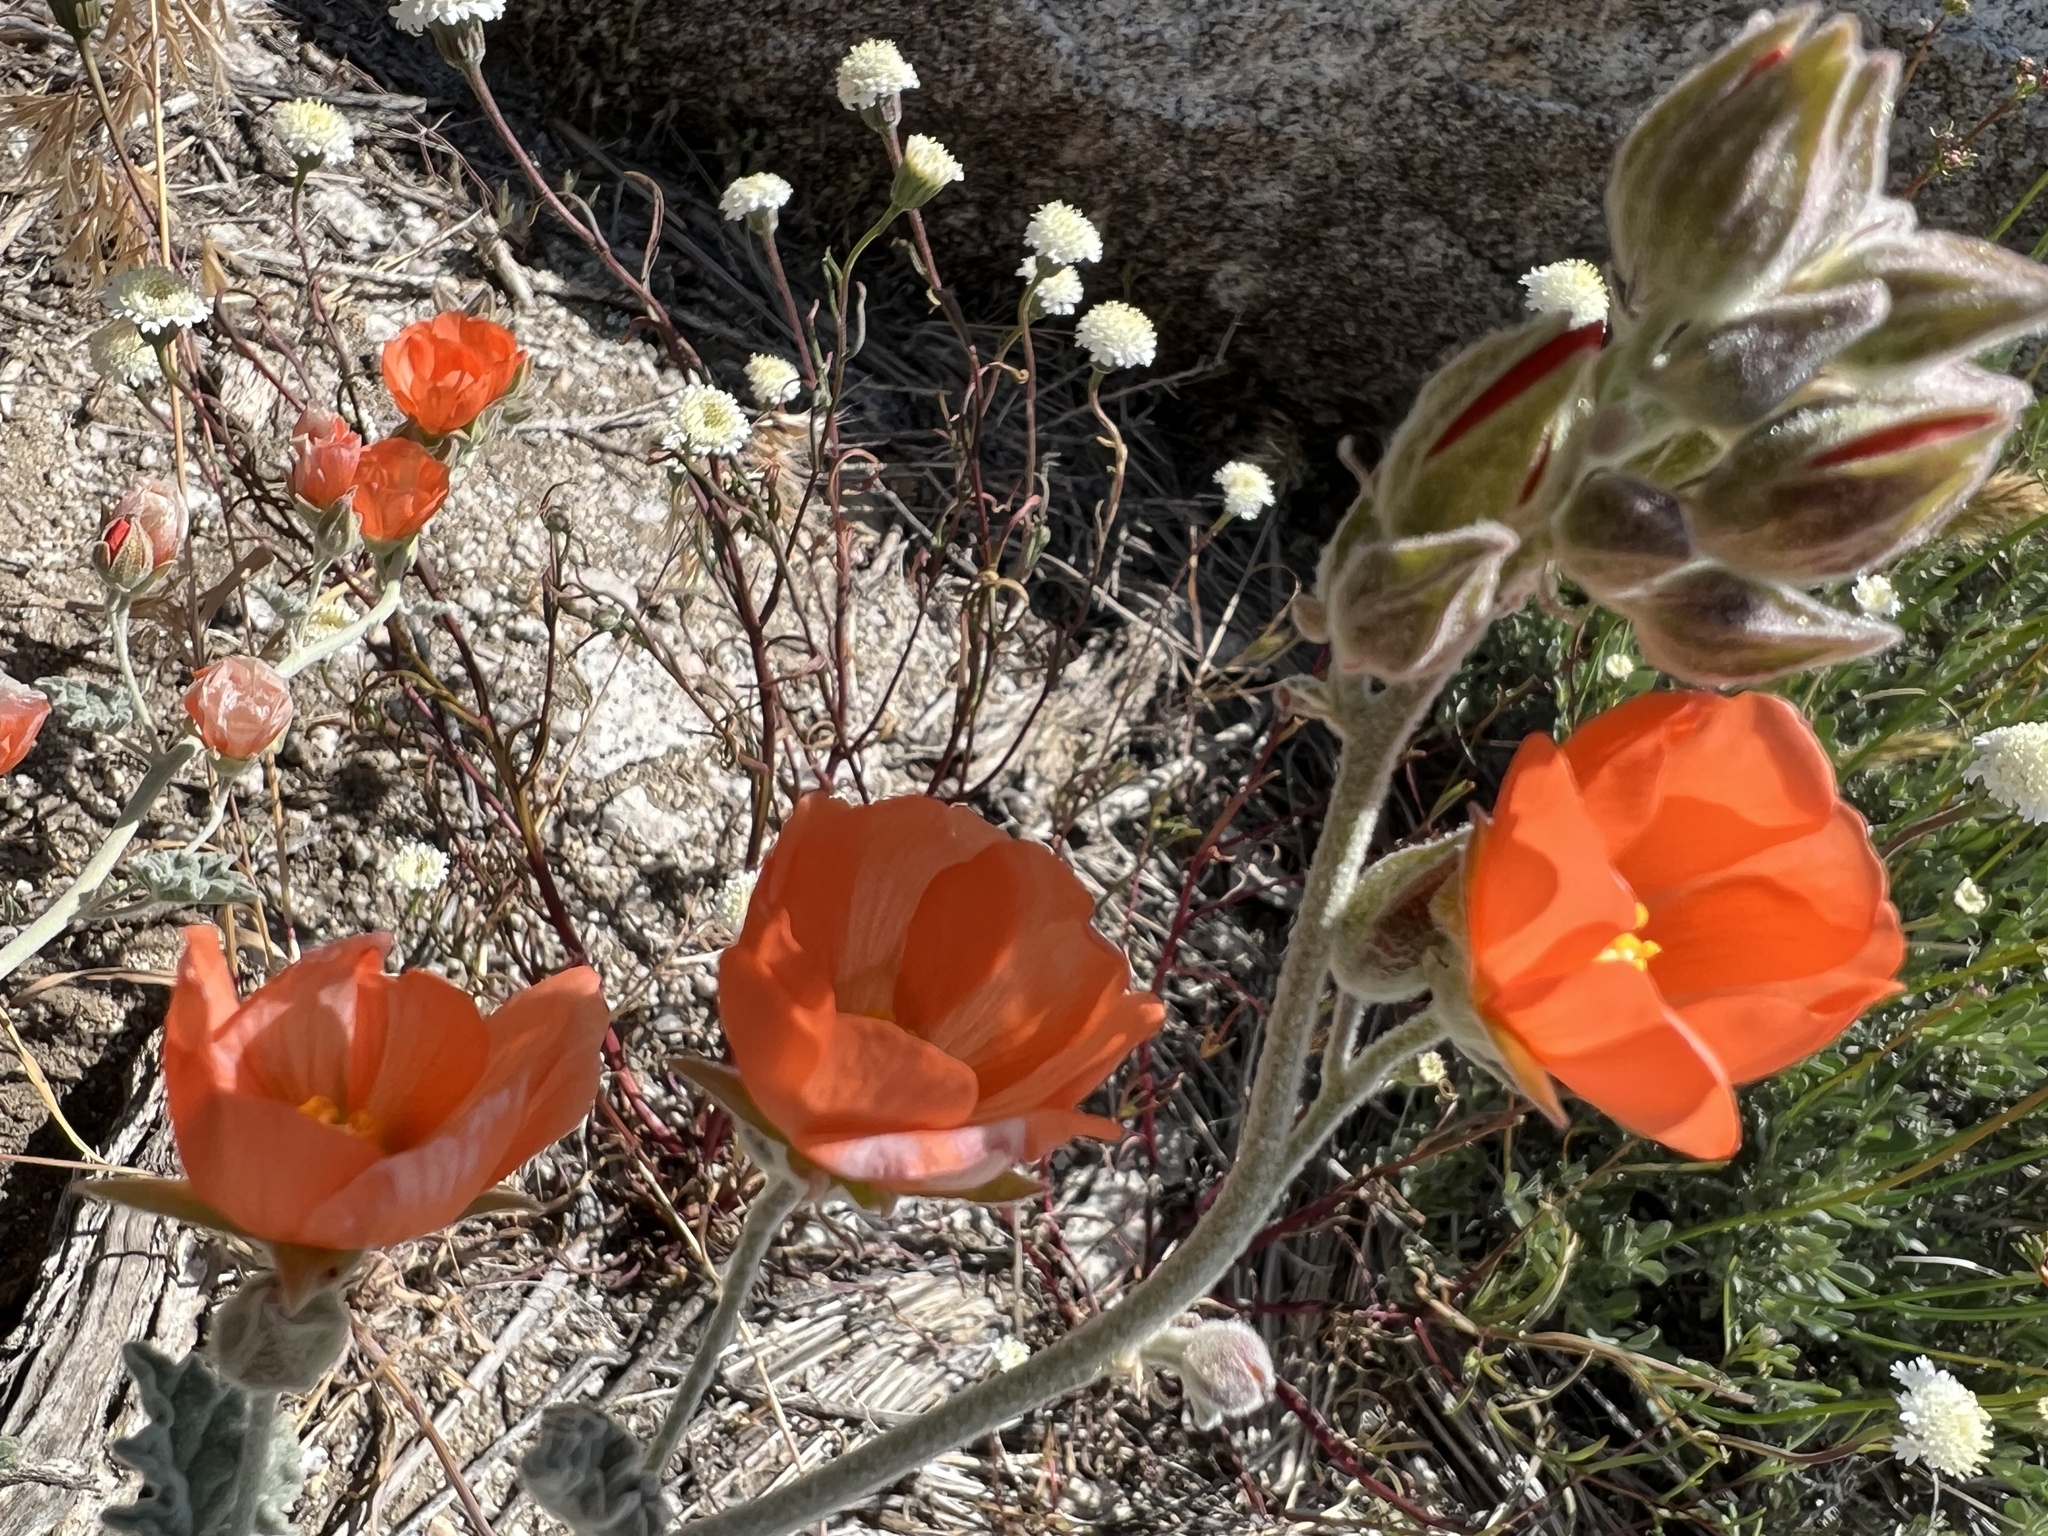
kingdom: Plantae
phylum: Tracheophyta
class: Magnoliopsida
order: Malvales
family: Malvaceae
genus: Sphaeralcea
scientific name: Sphaeralcea ambigua
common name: Apricot globe-mallow
